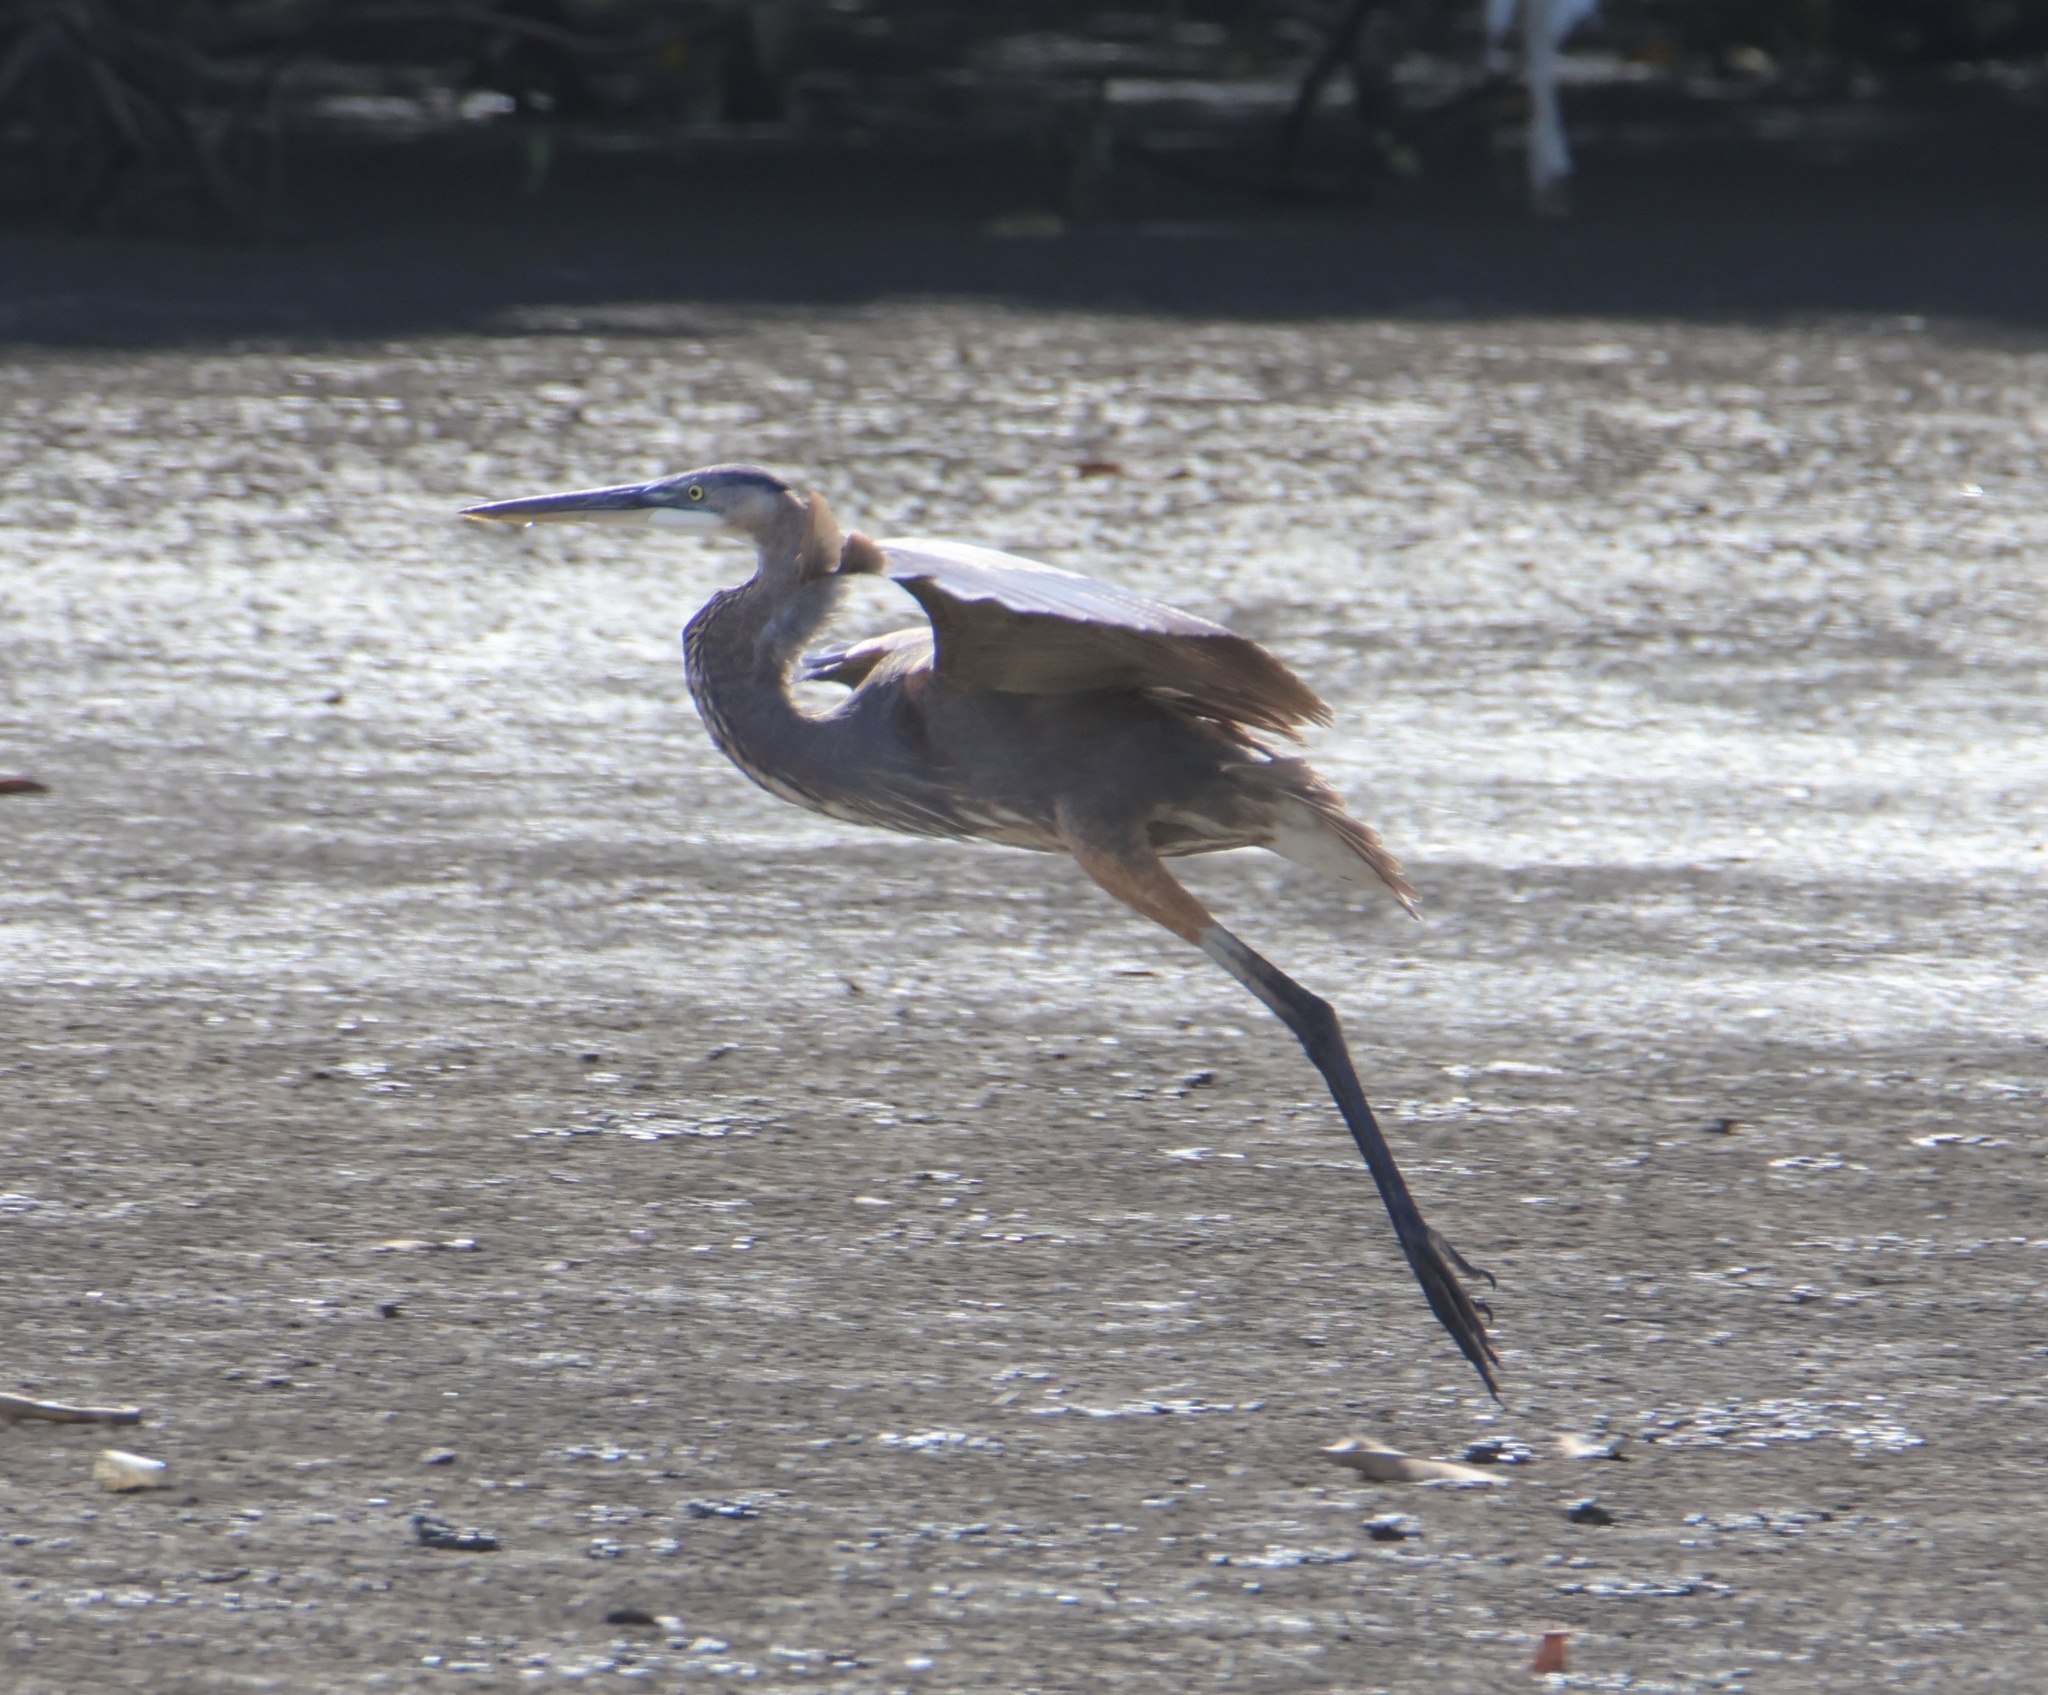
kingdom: Animalia
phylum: Chordata
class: Aves
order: Pelecaniformes
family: Ardeidae
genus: Ardea
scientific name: Ardea herodias
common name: Great blue heron
